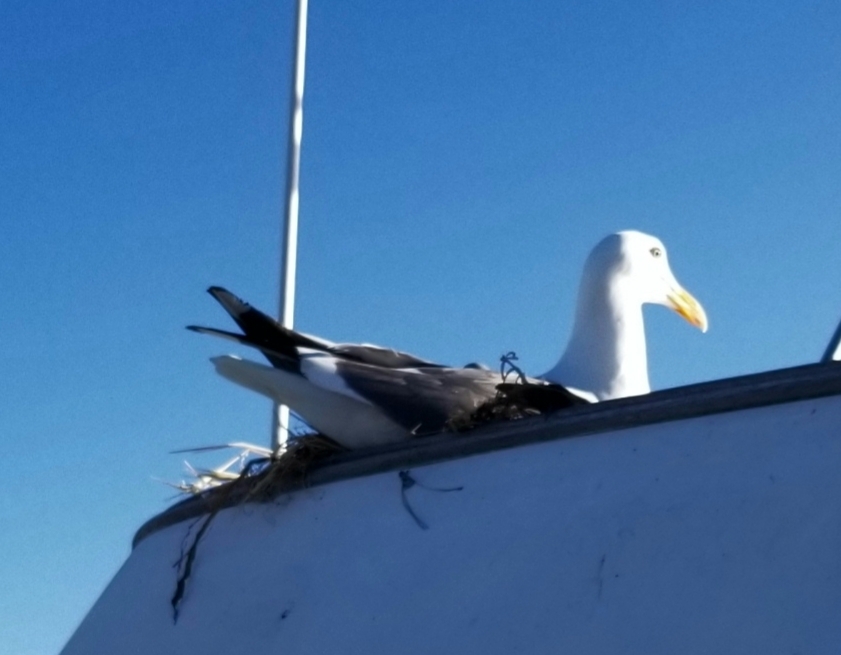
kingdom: Animalia
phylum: Chordata
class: Aves
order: Charadriiformes
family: Laridae
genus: Larus
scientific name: Larus occidentalis
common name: Western gull
